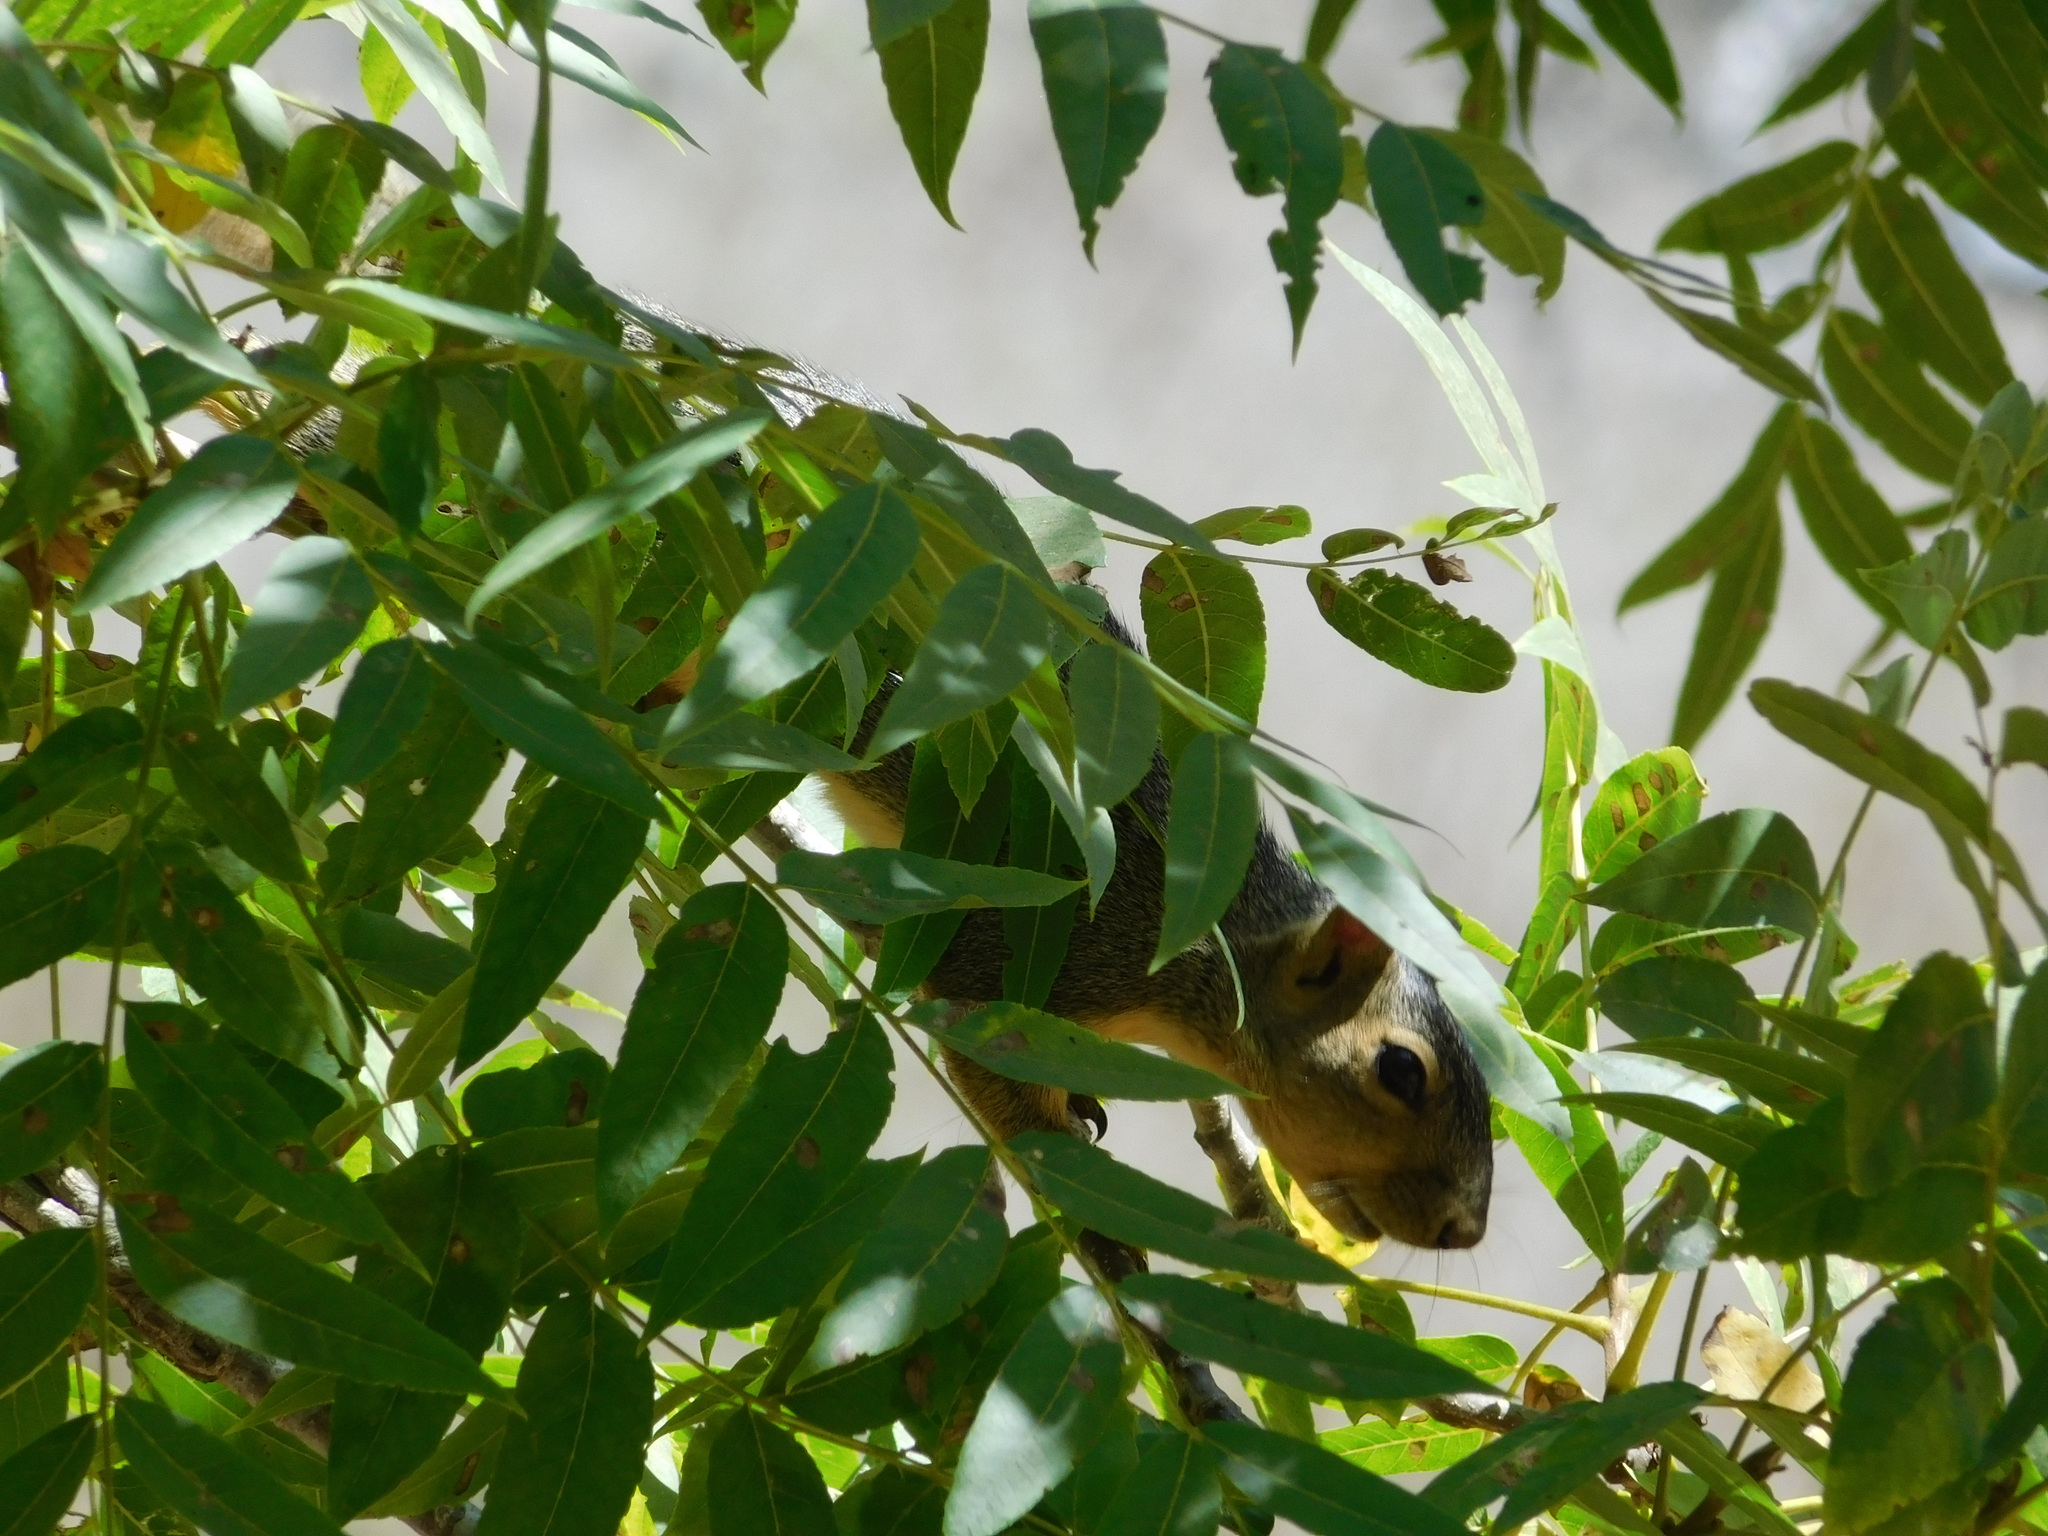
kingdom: Animalia
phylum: Chordata
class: Mammalia
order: Rodentia
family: Sciuridae
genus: Sciurus
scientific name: Sciurus niger
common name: Fox squirrel
